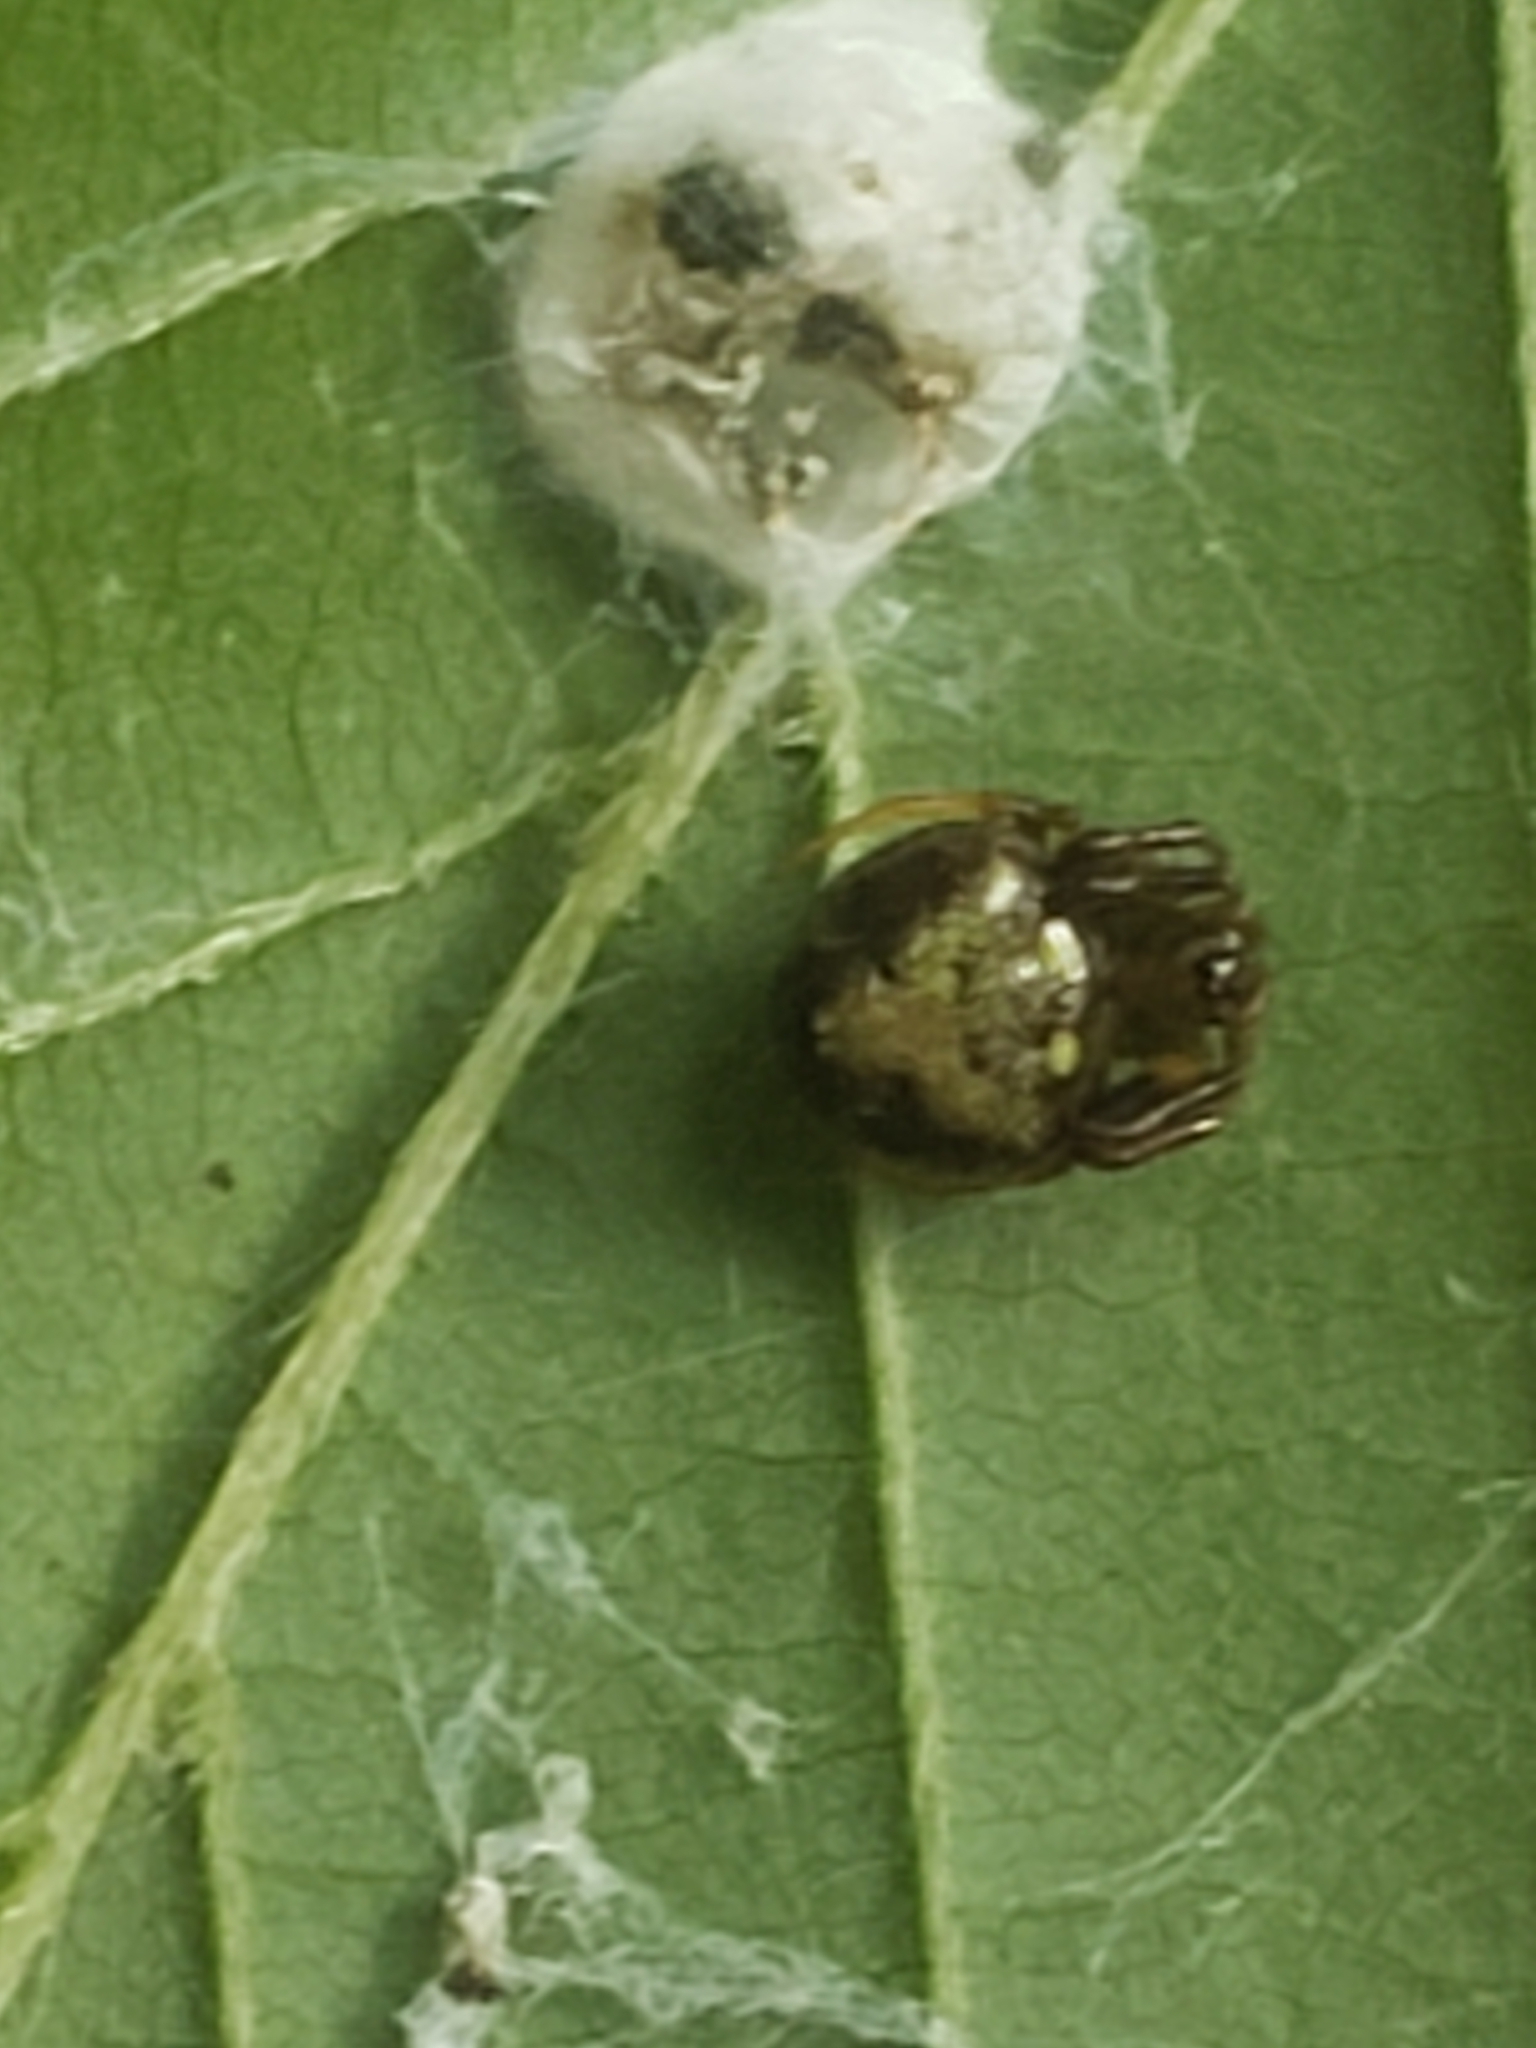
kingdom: Animalia
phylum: Arthropoda
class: Arachnida
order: Araneae
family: Araneidae
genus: Verrucosa
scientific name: Verrucosa arenata
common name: Orb weavers
